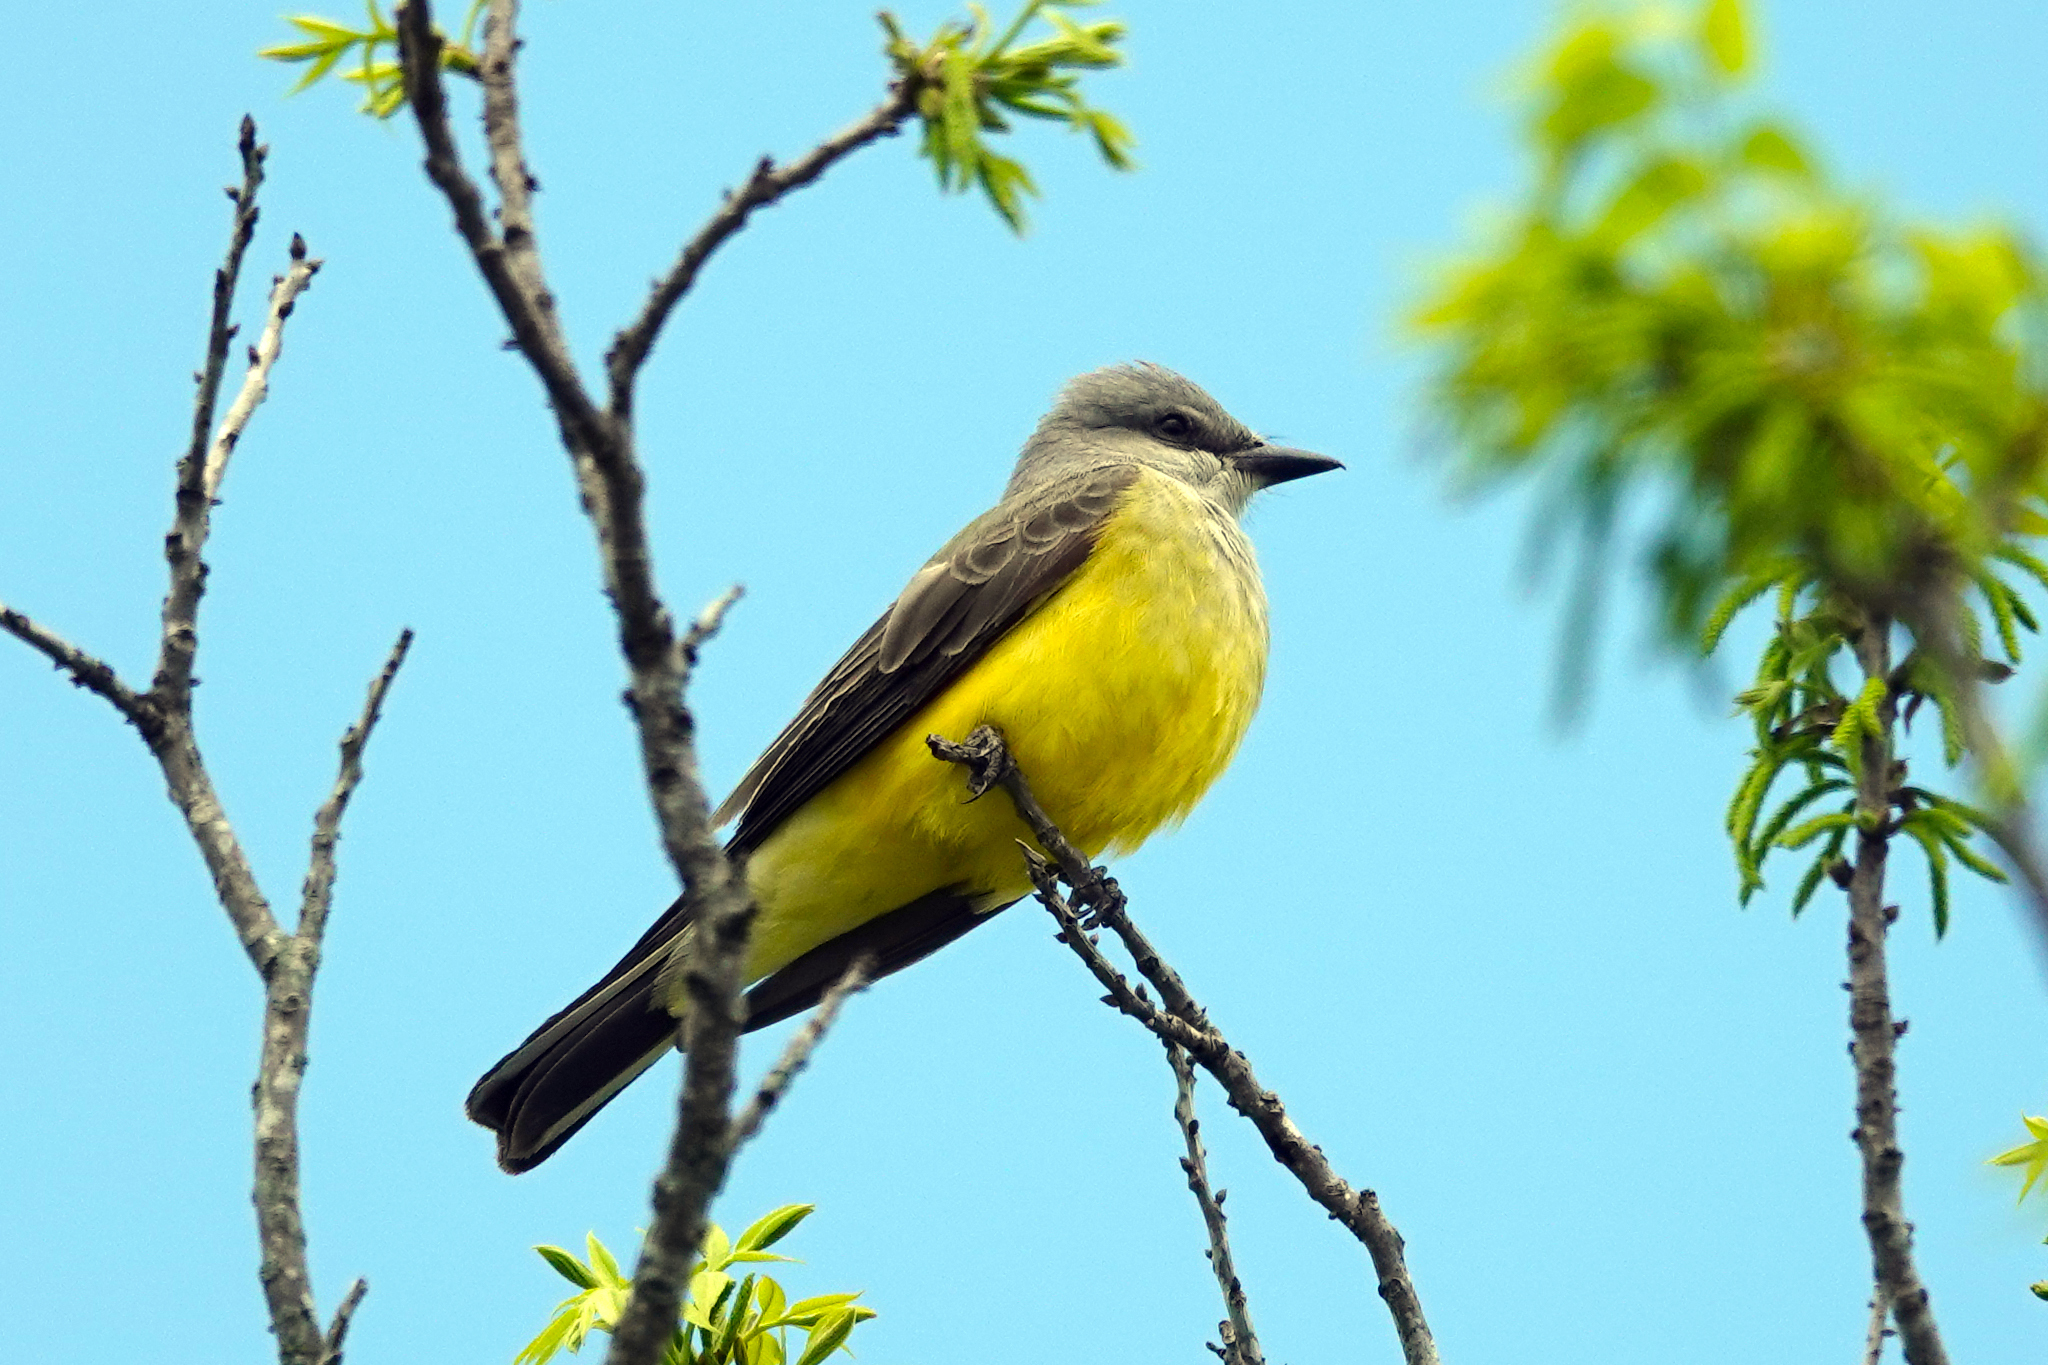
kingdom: Animalia
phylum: Chordata
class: Aves
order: Passeriformes
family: Tyrannidae
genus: Tyrannus
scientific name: Tyrannus verticalis
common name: Western kingbird
